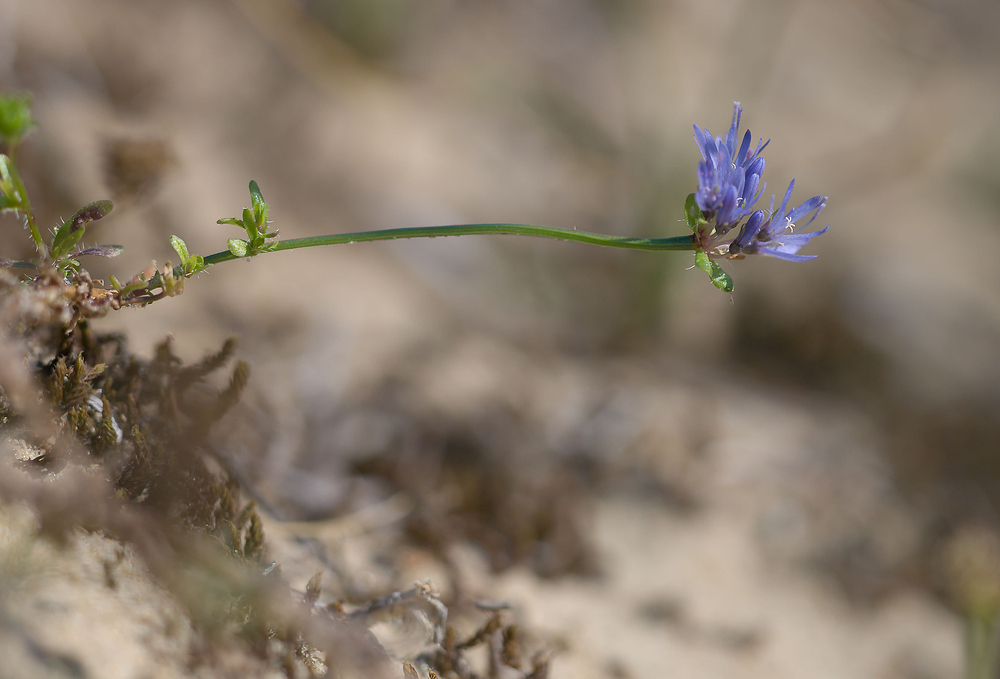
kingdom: Plantae
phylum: Tracheophyta
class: Magnoliopsida
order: Asterales
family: Campanulaceae
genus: Jasione
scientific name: Jasione montana
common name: Sheep's-bit
